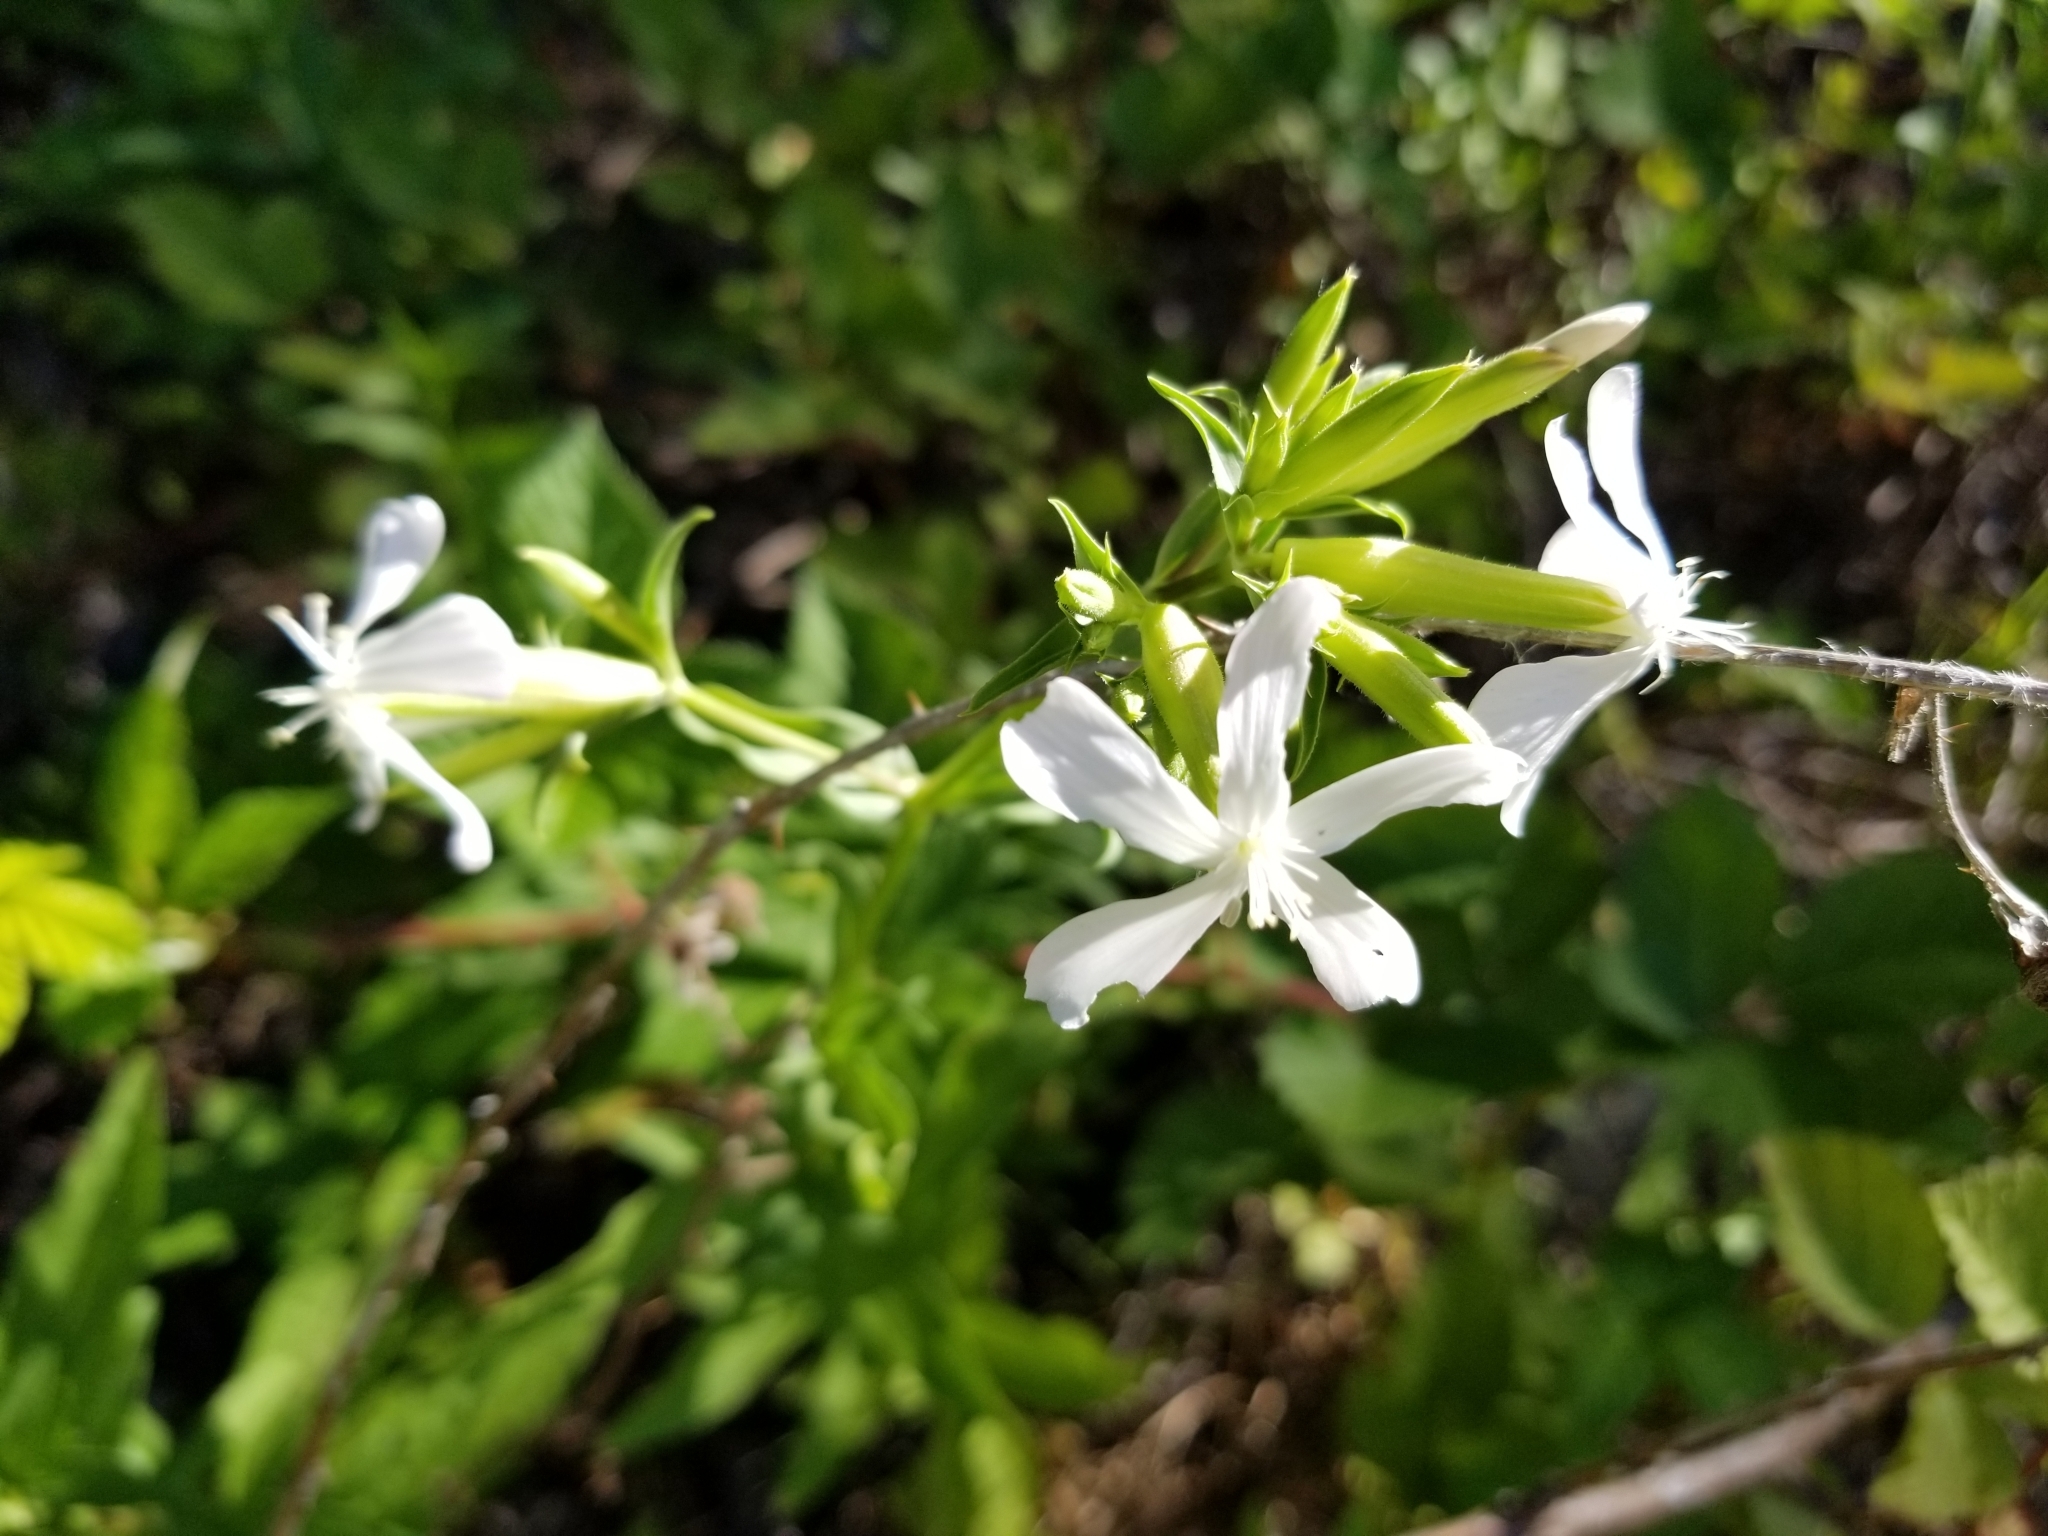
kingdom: Plantae
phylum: Tracheophyta
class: Magnoliopsida
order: Caryophyllales
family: Caryophyllaceae
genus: Saponaria
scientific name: Saponaria officinalis
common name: Soapwort
